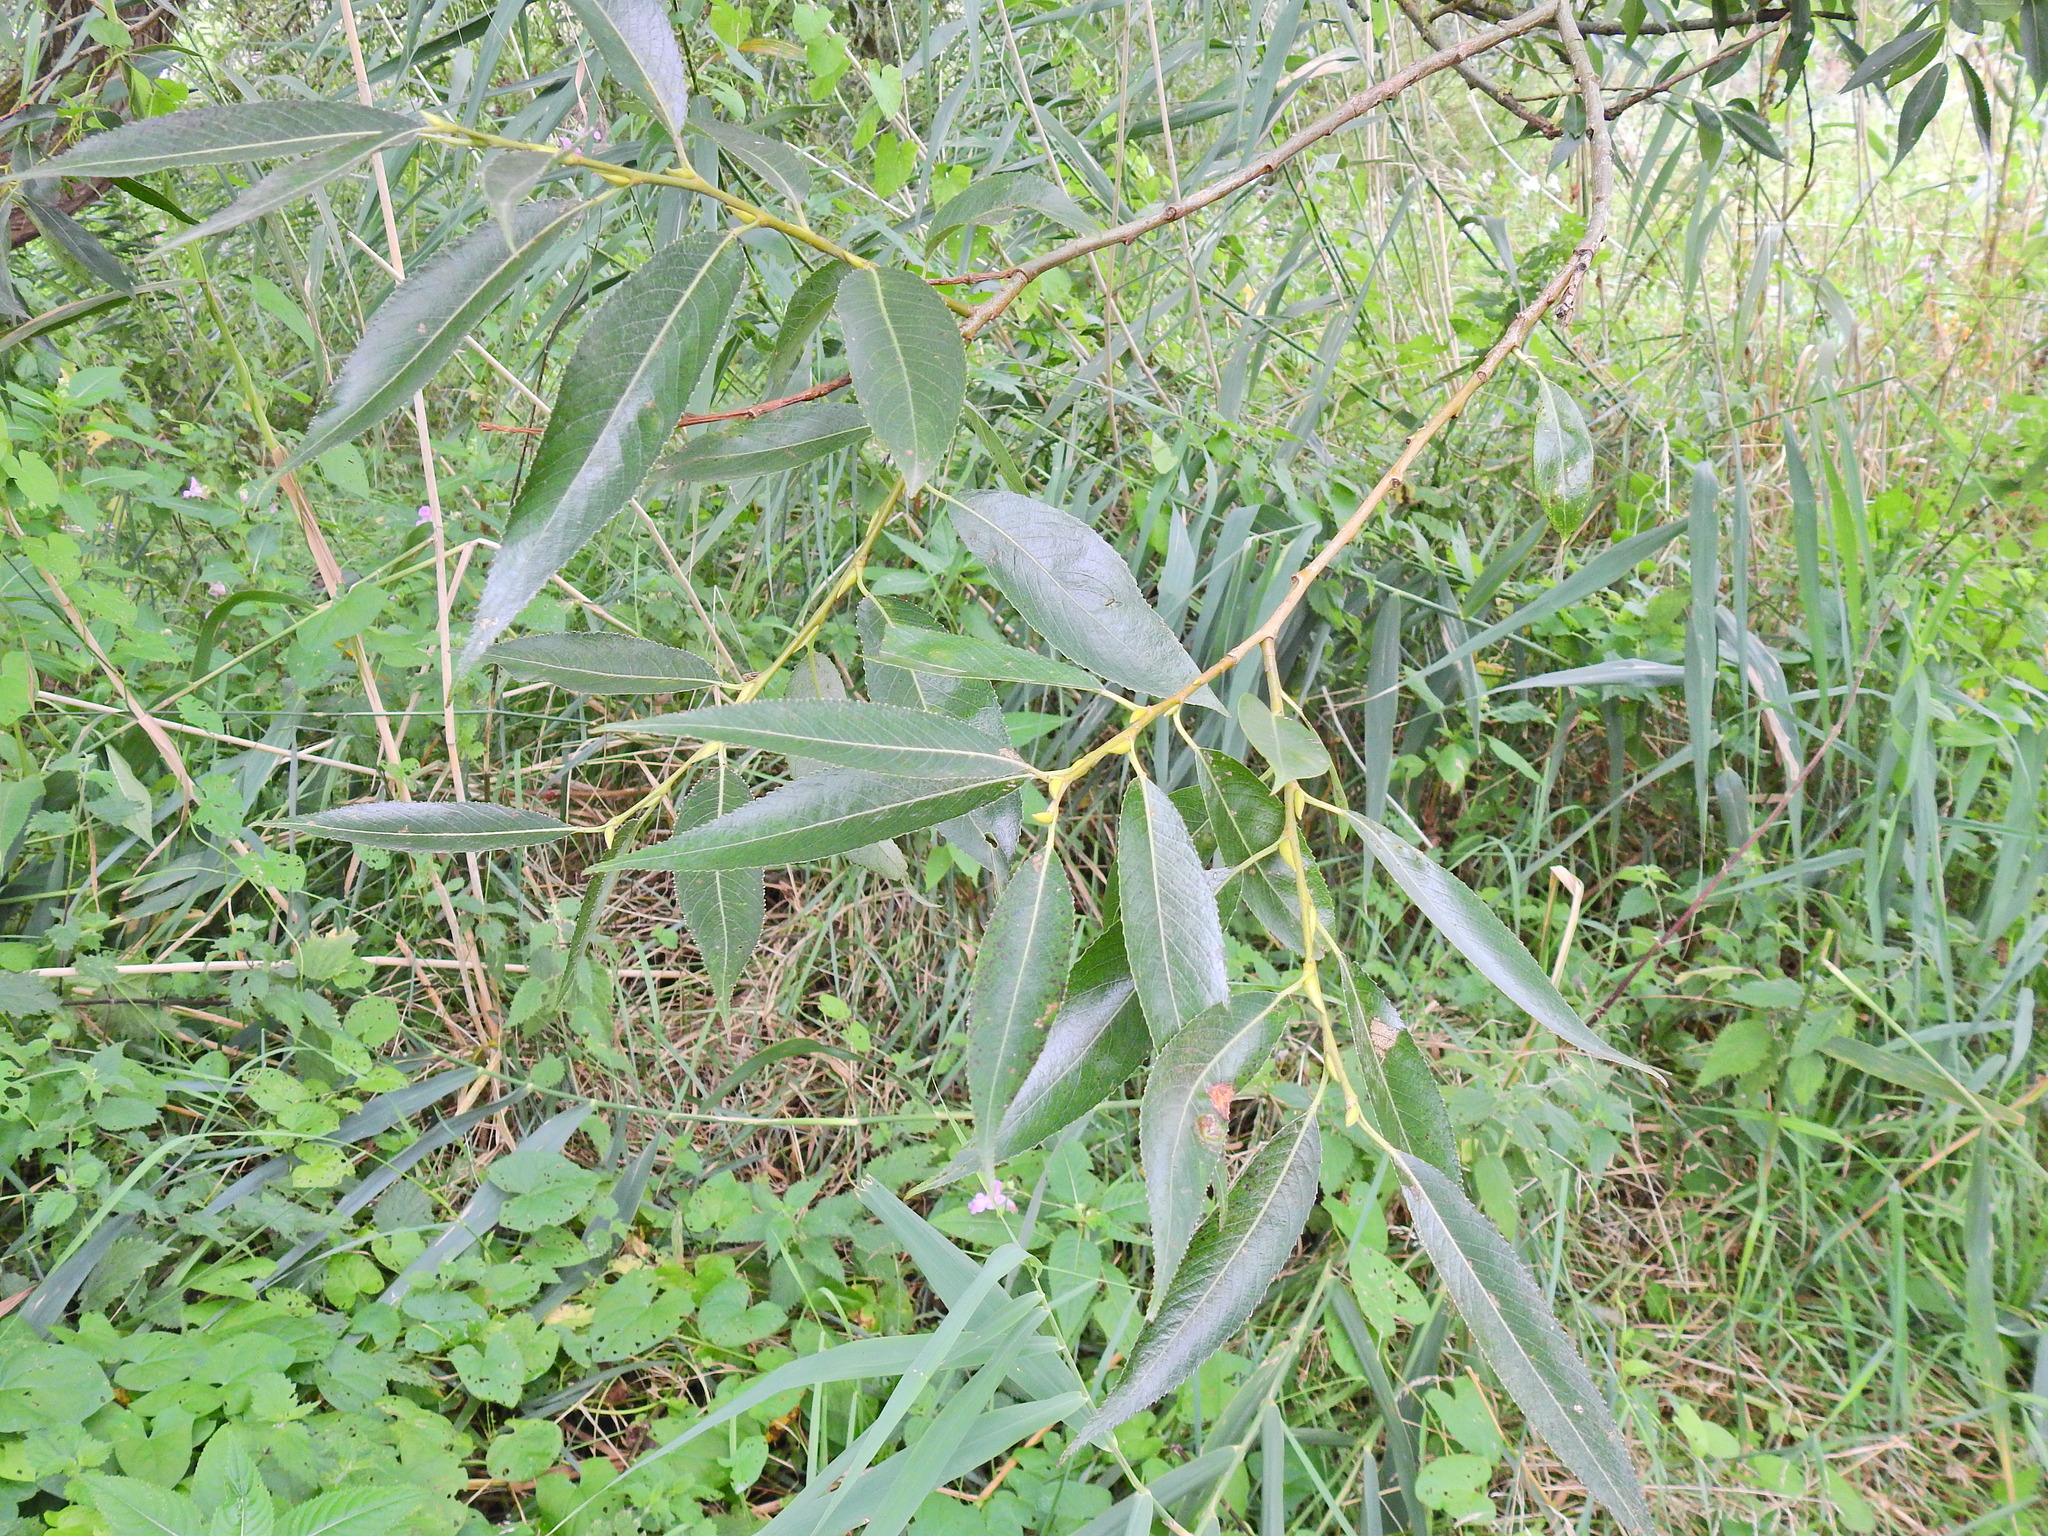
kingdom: Plantae
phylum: Tracheophyta
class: Magnoliopsida
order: Malpighiales
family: Salicaceae
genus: Salix
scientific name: Salix fragilis
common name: Crack willow
